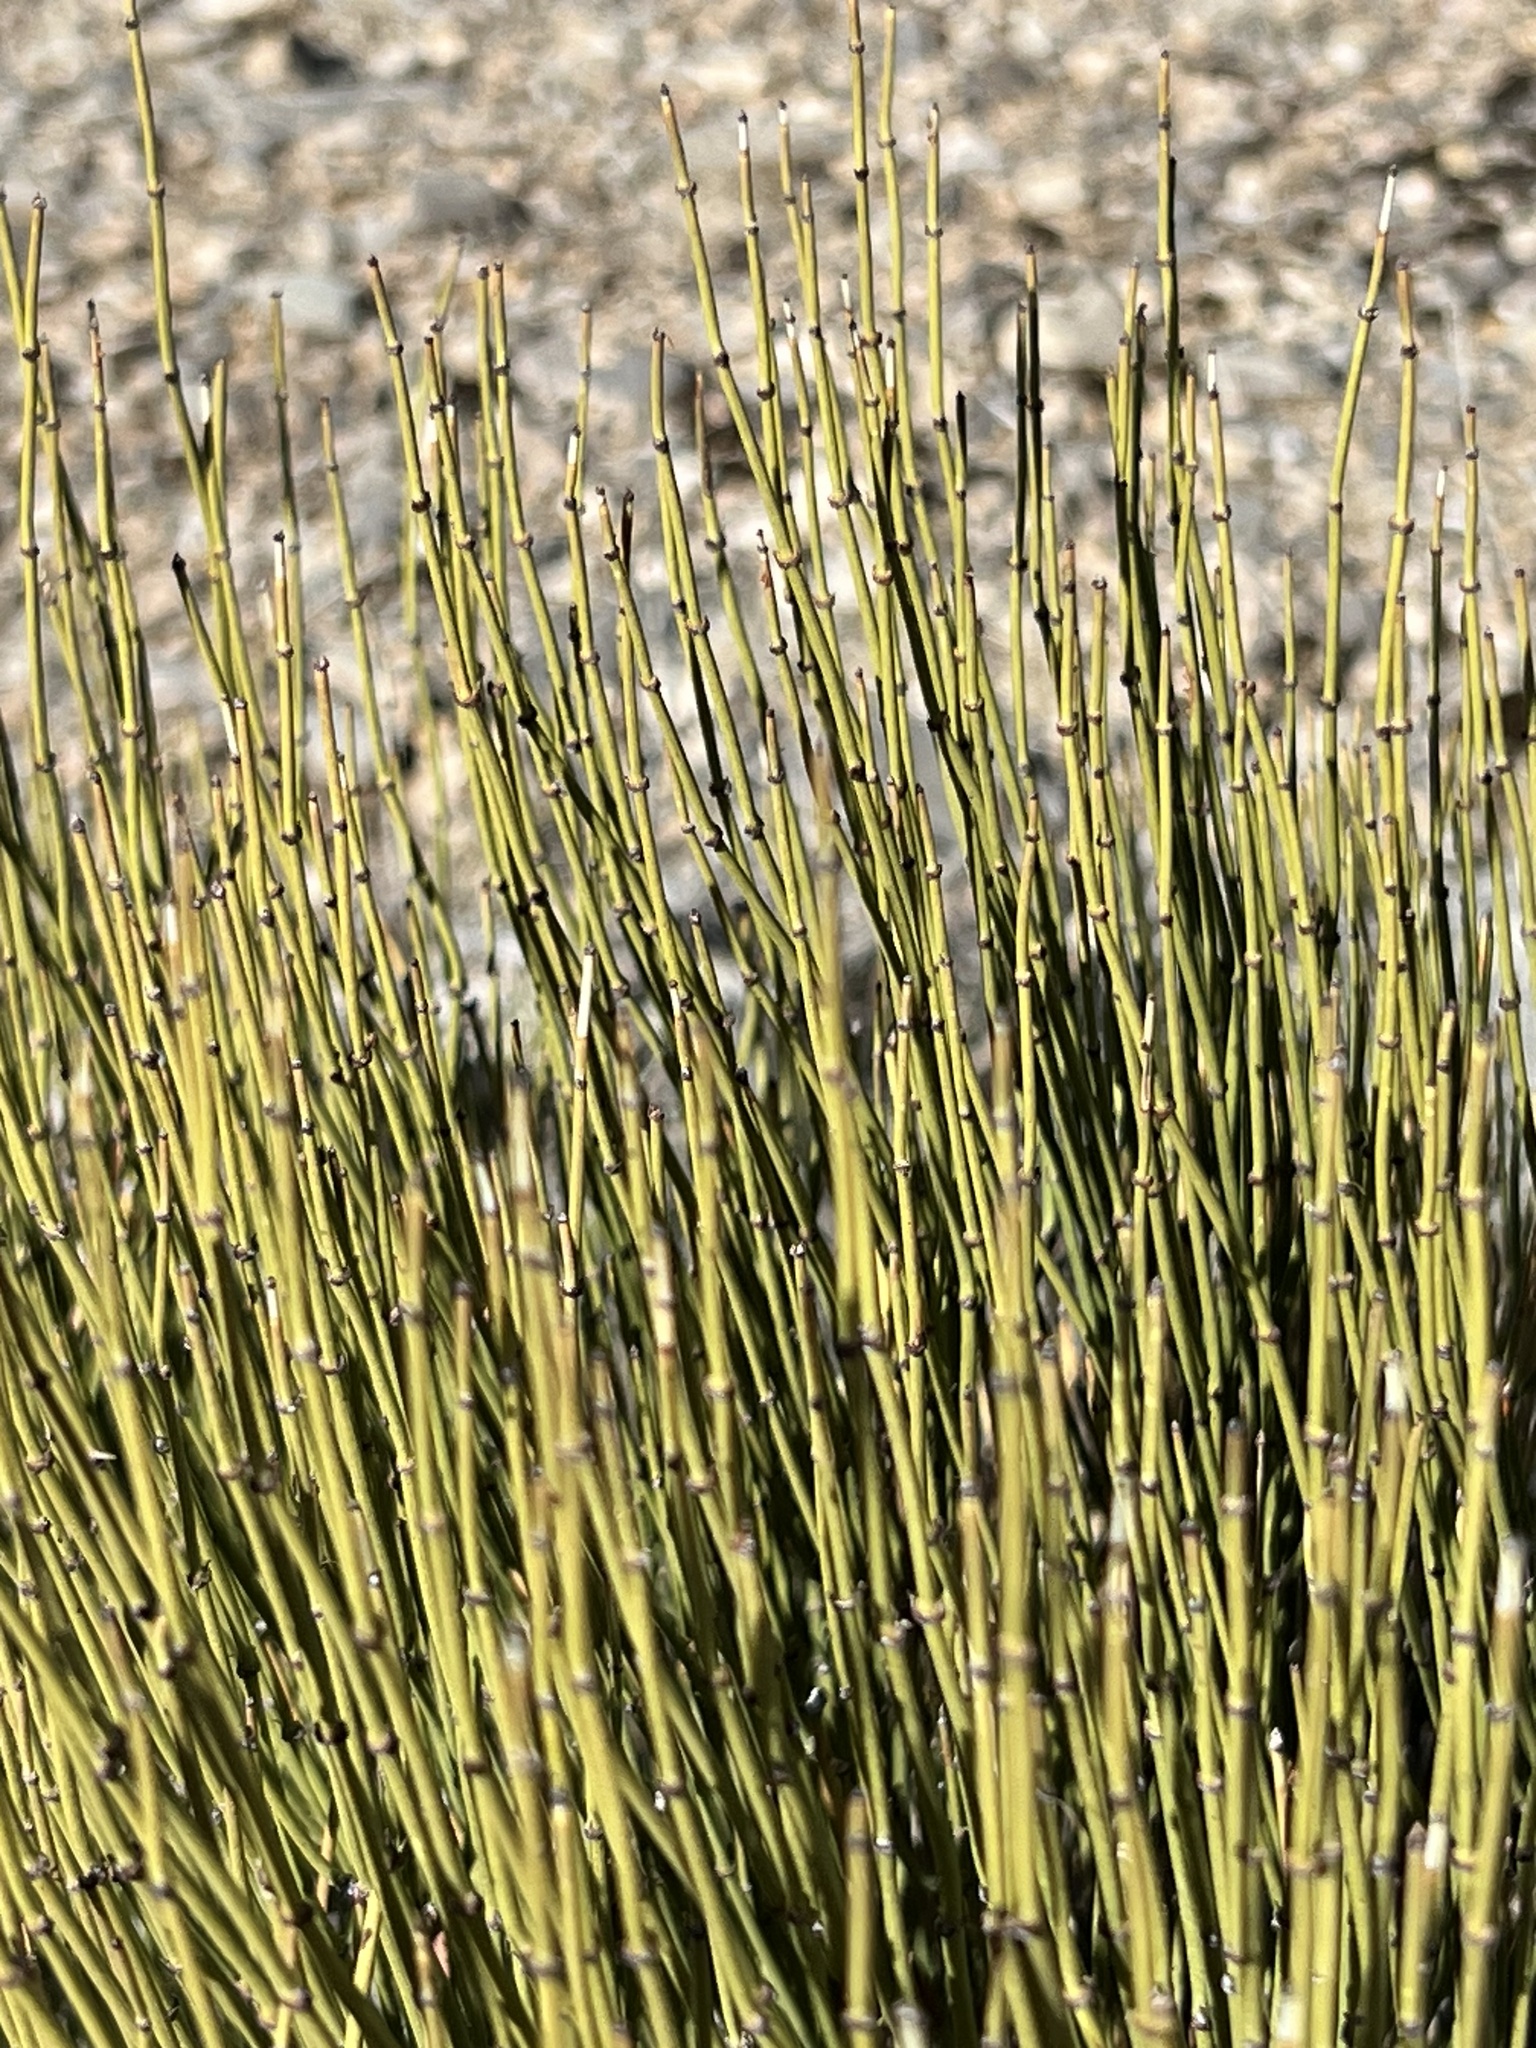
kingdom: Plantae
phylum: Tracheophyta
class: Gnetopsida
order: Ephedrales
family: Ephedraceae
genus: Ephedra
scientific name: Ephedra viridis
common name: Green ephedra
